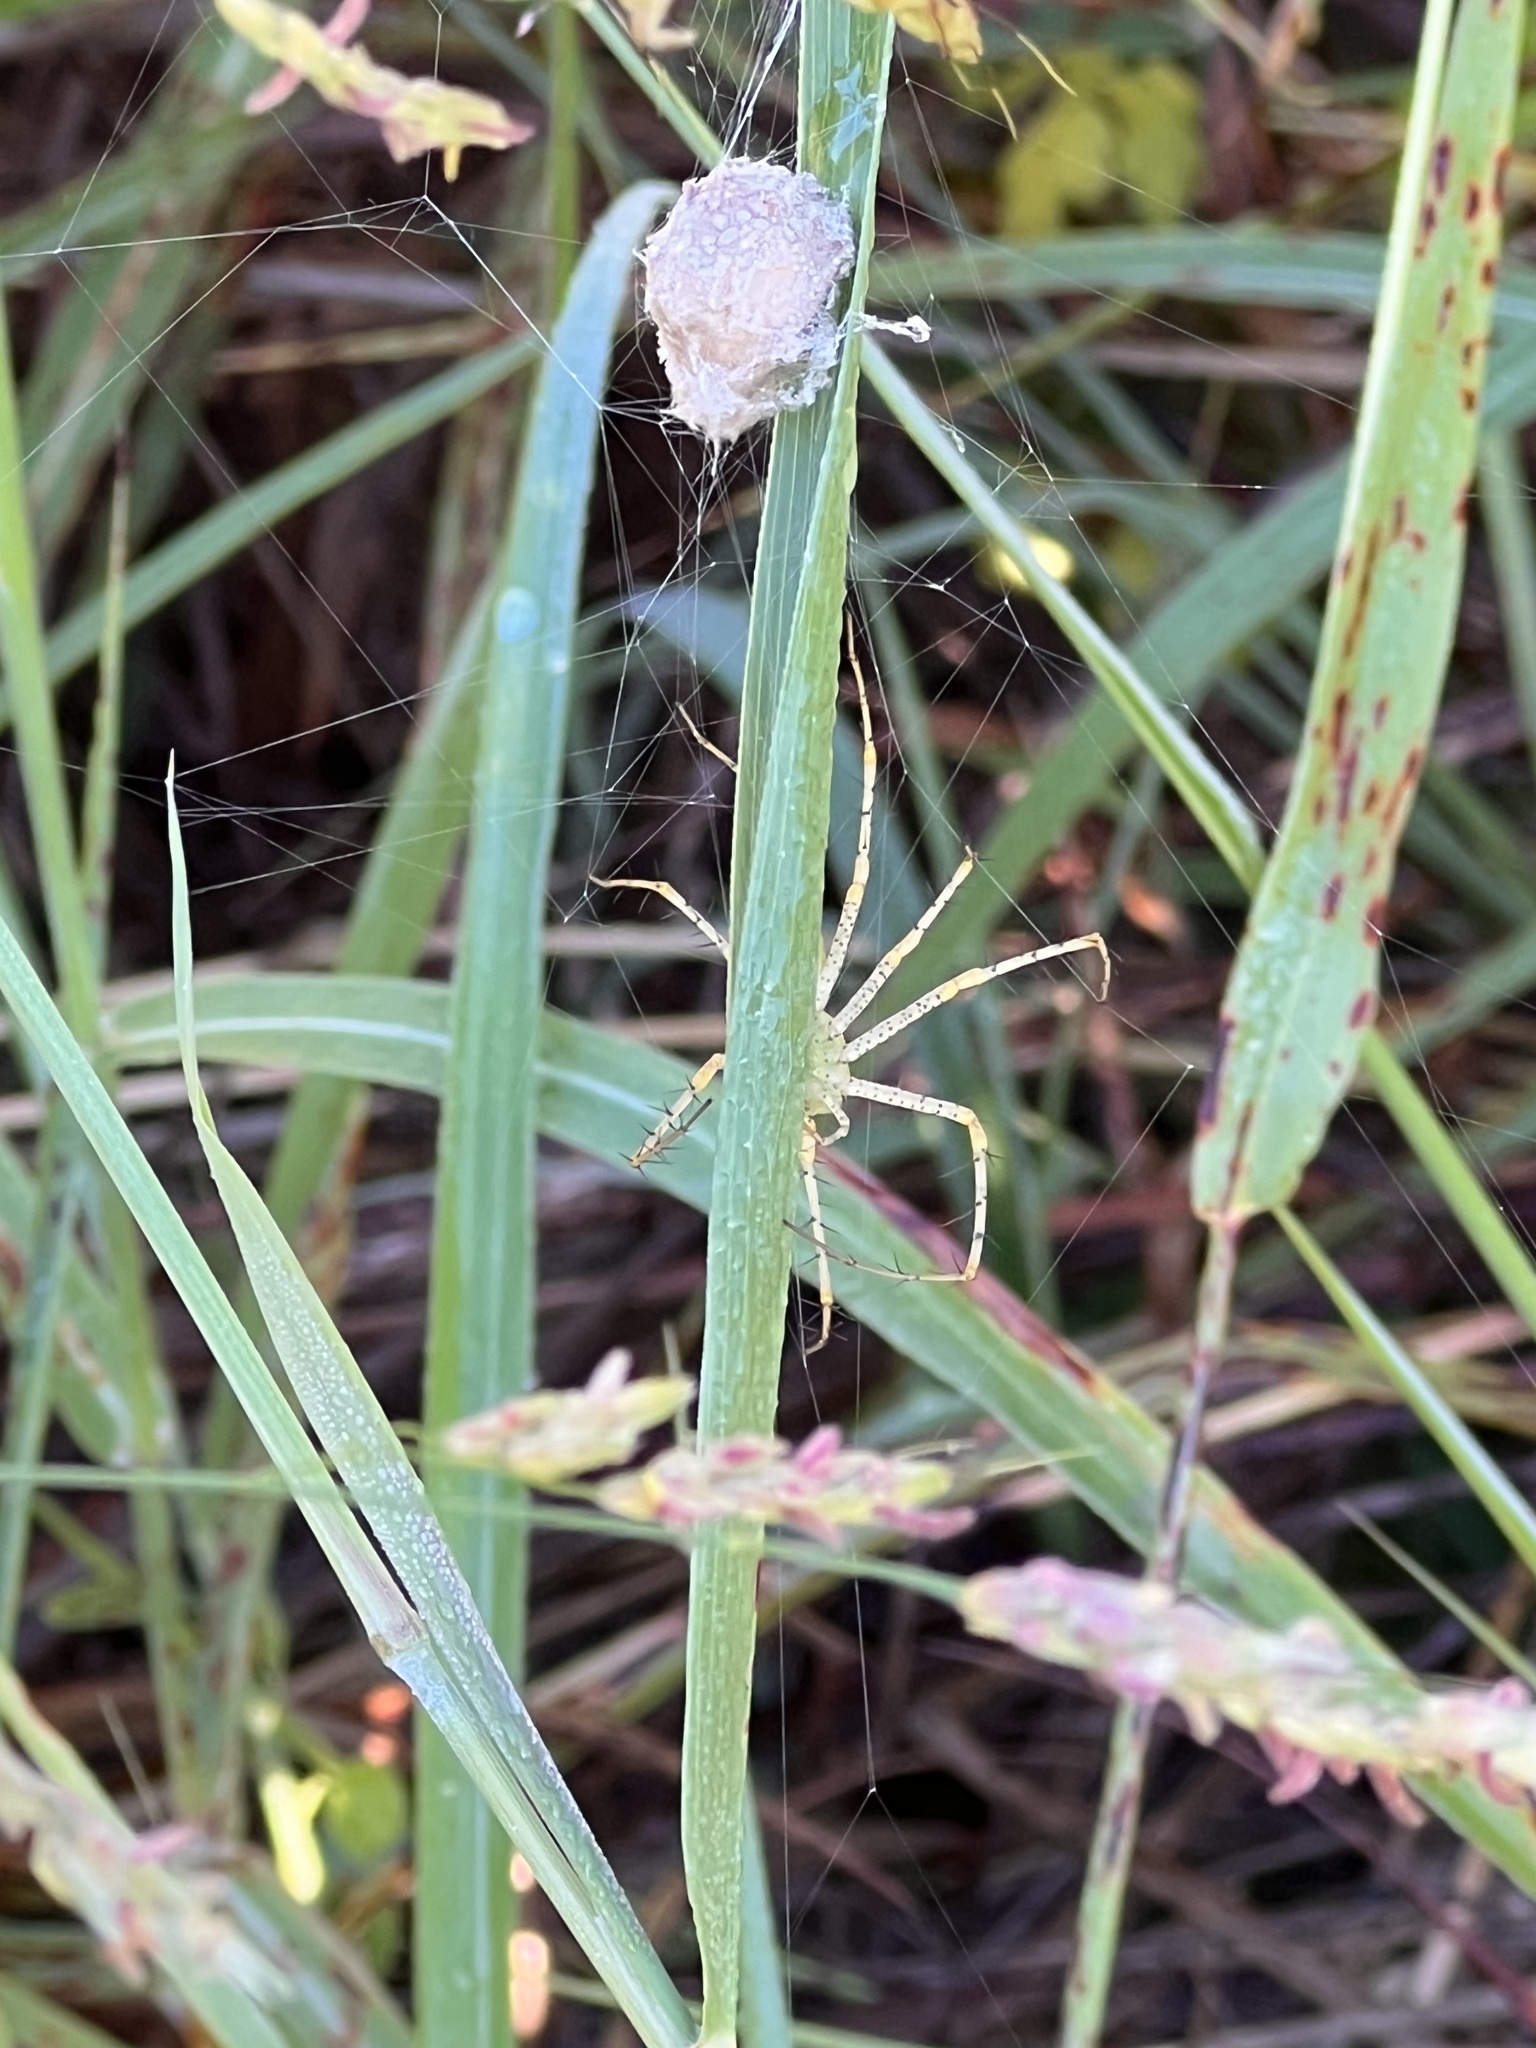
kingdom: Animalia
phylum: Arthropoda
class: Arachnida
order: Araneae
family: Oxyopidae
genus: Peucetia
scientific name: Peucetia viridans
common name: Lynx spiders
